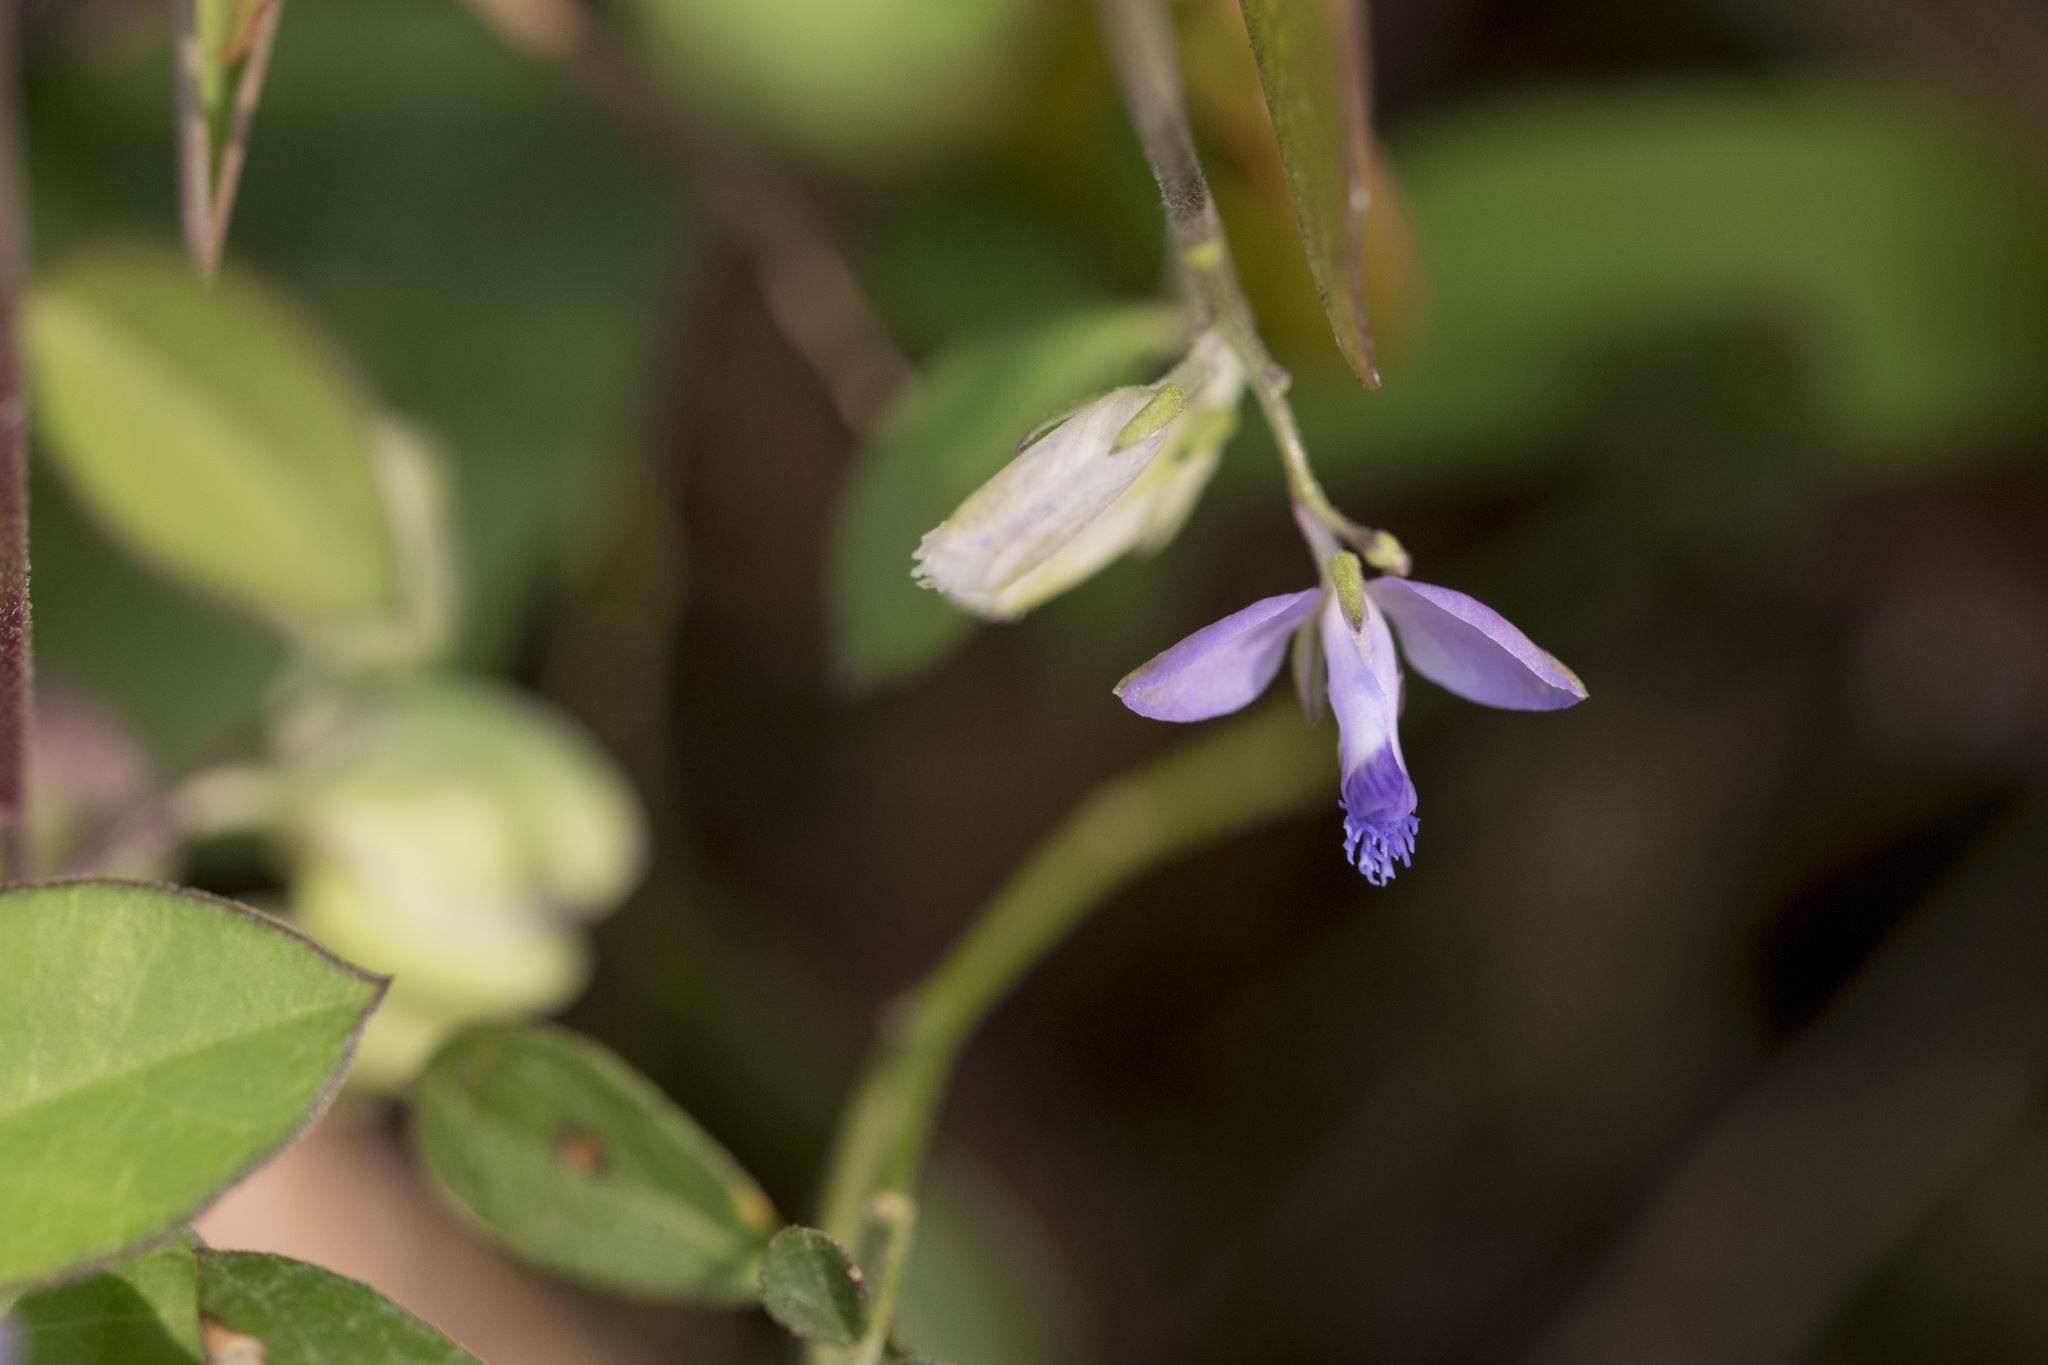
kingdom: Plantae
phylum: Tracheophyta
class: Magnoliopsida
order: Fabales
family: Polygalaceae
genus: Polygala
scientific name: Polygala japonica
